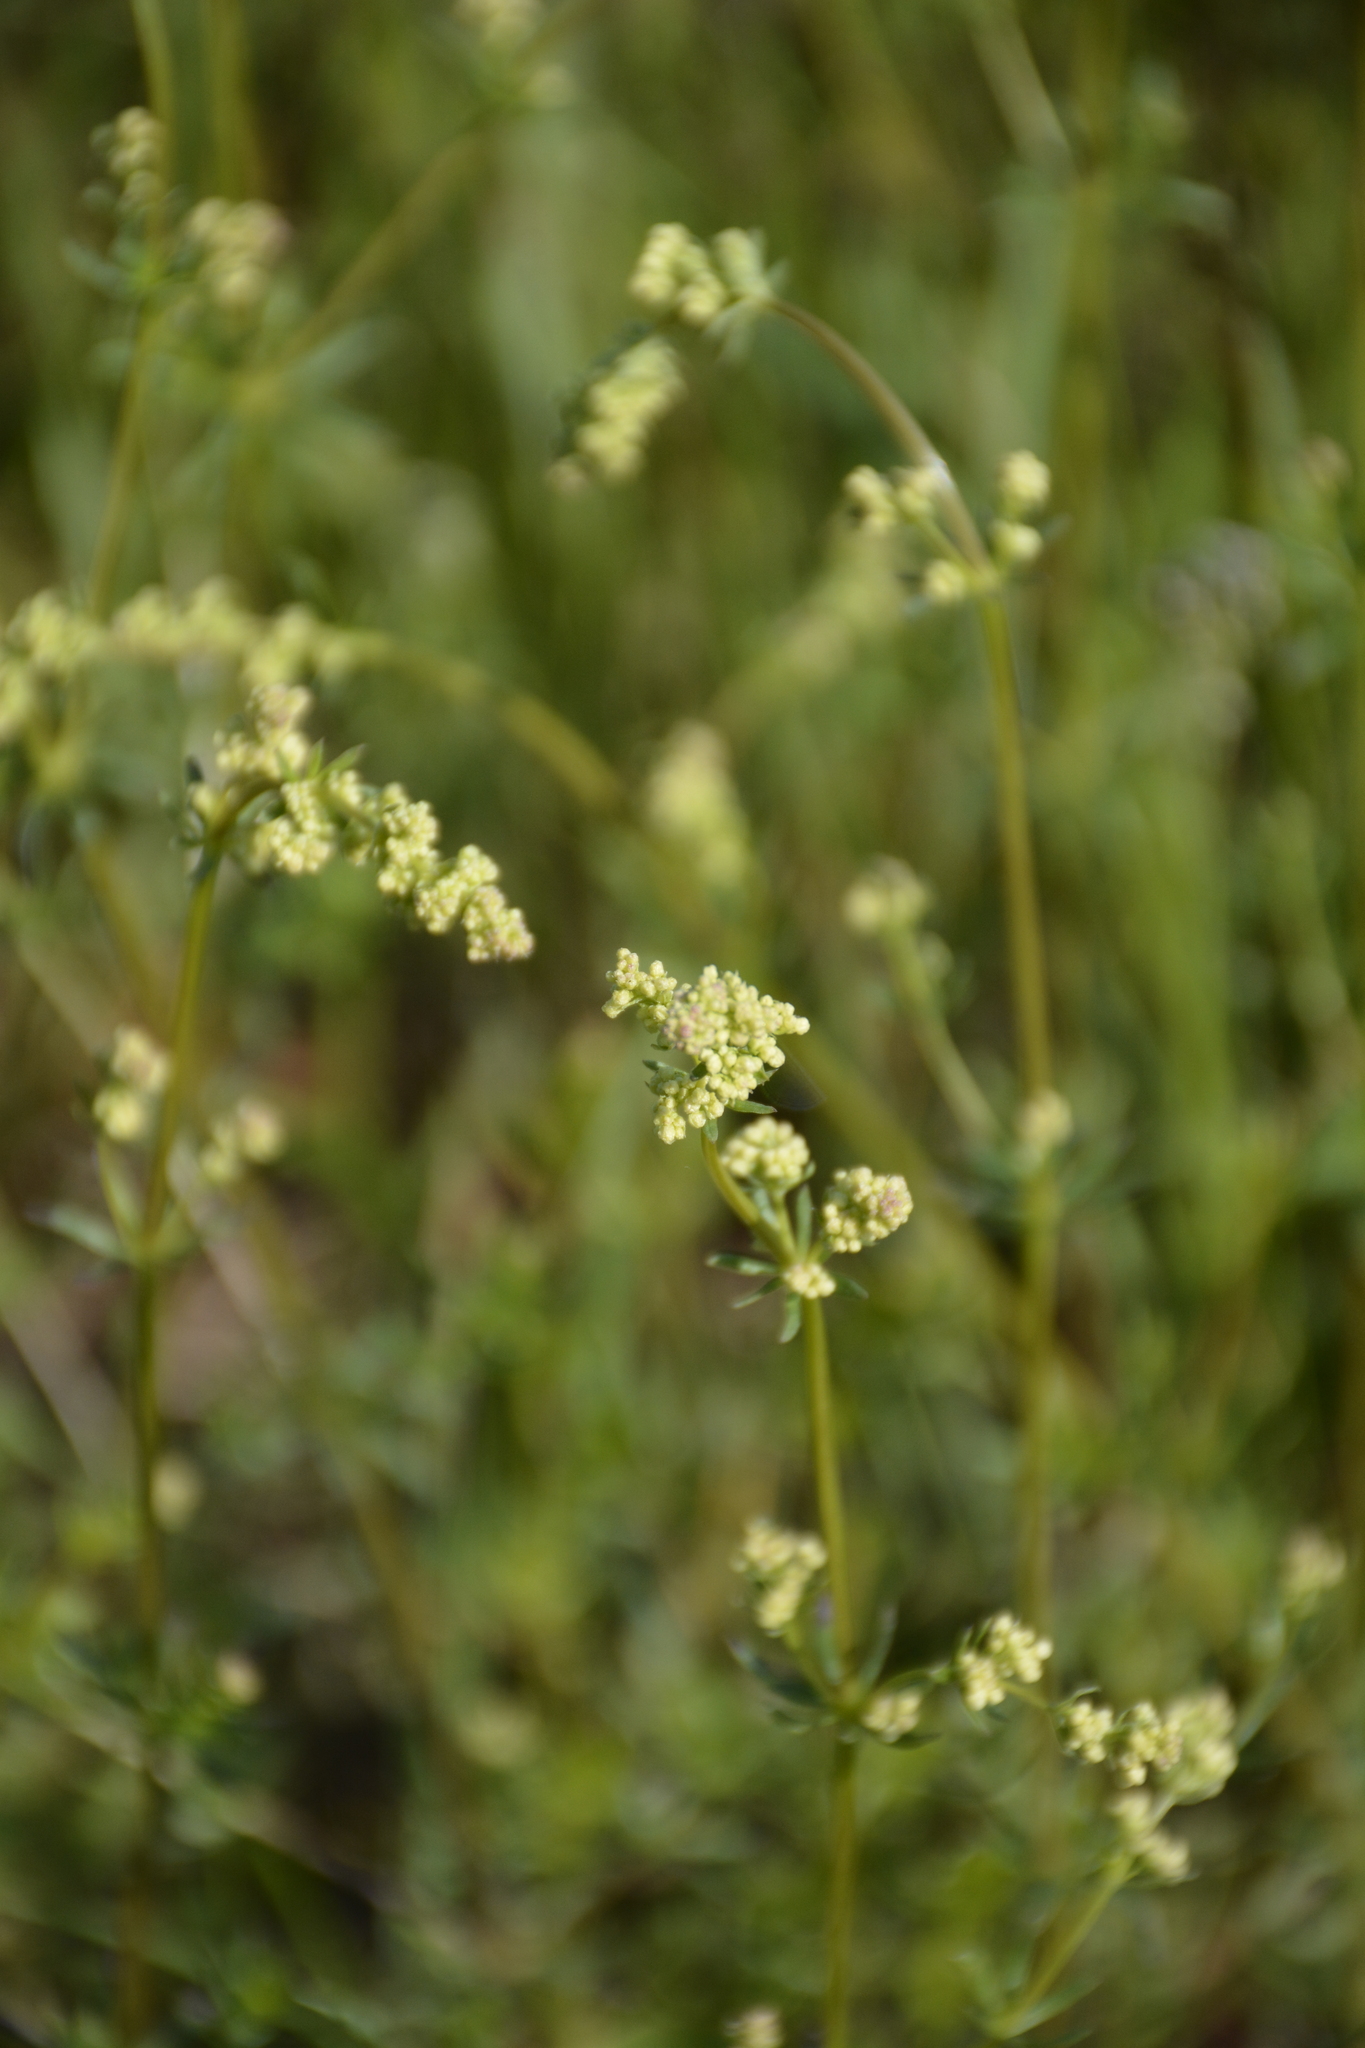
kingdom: Plantae
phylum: Tracheophyta
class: Magnoliopsida
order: Gentianales
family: Rubiaceae
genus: Galium
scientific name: Galium mollugo
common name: Hedge bedstraw
